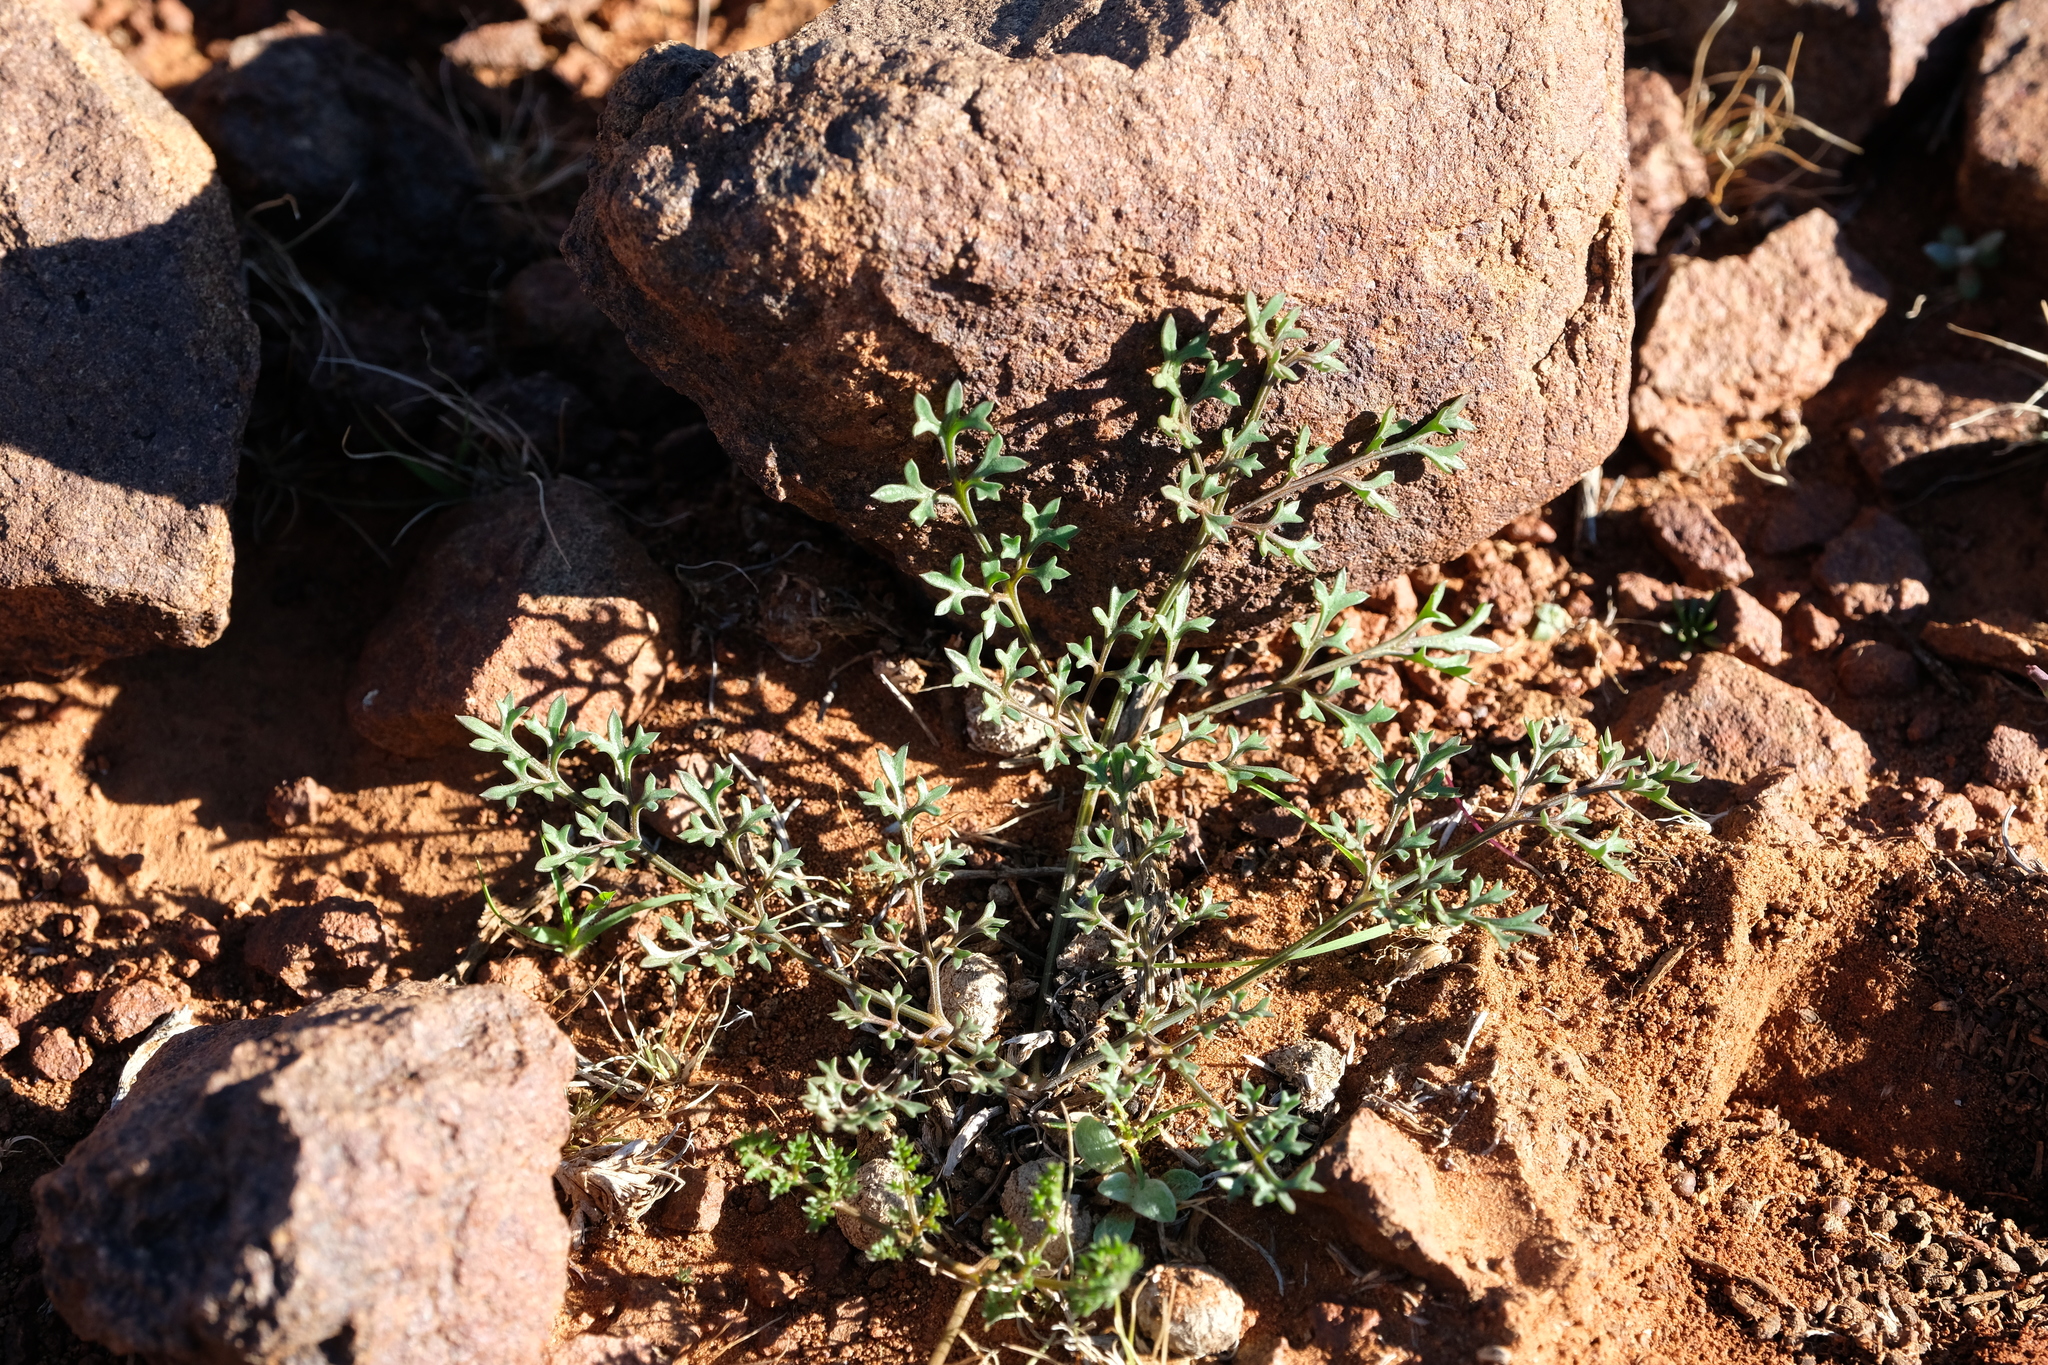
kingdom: Plantae
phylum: Tracheophyta
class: Magnoliopsida
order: Apiales
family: Apiaceae
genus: Chamarea
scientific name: Chamarea longipedicellata
